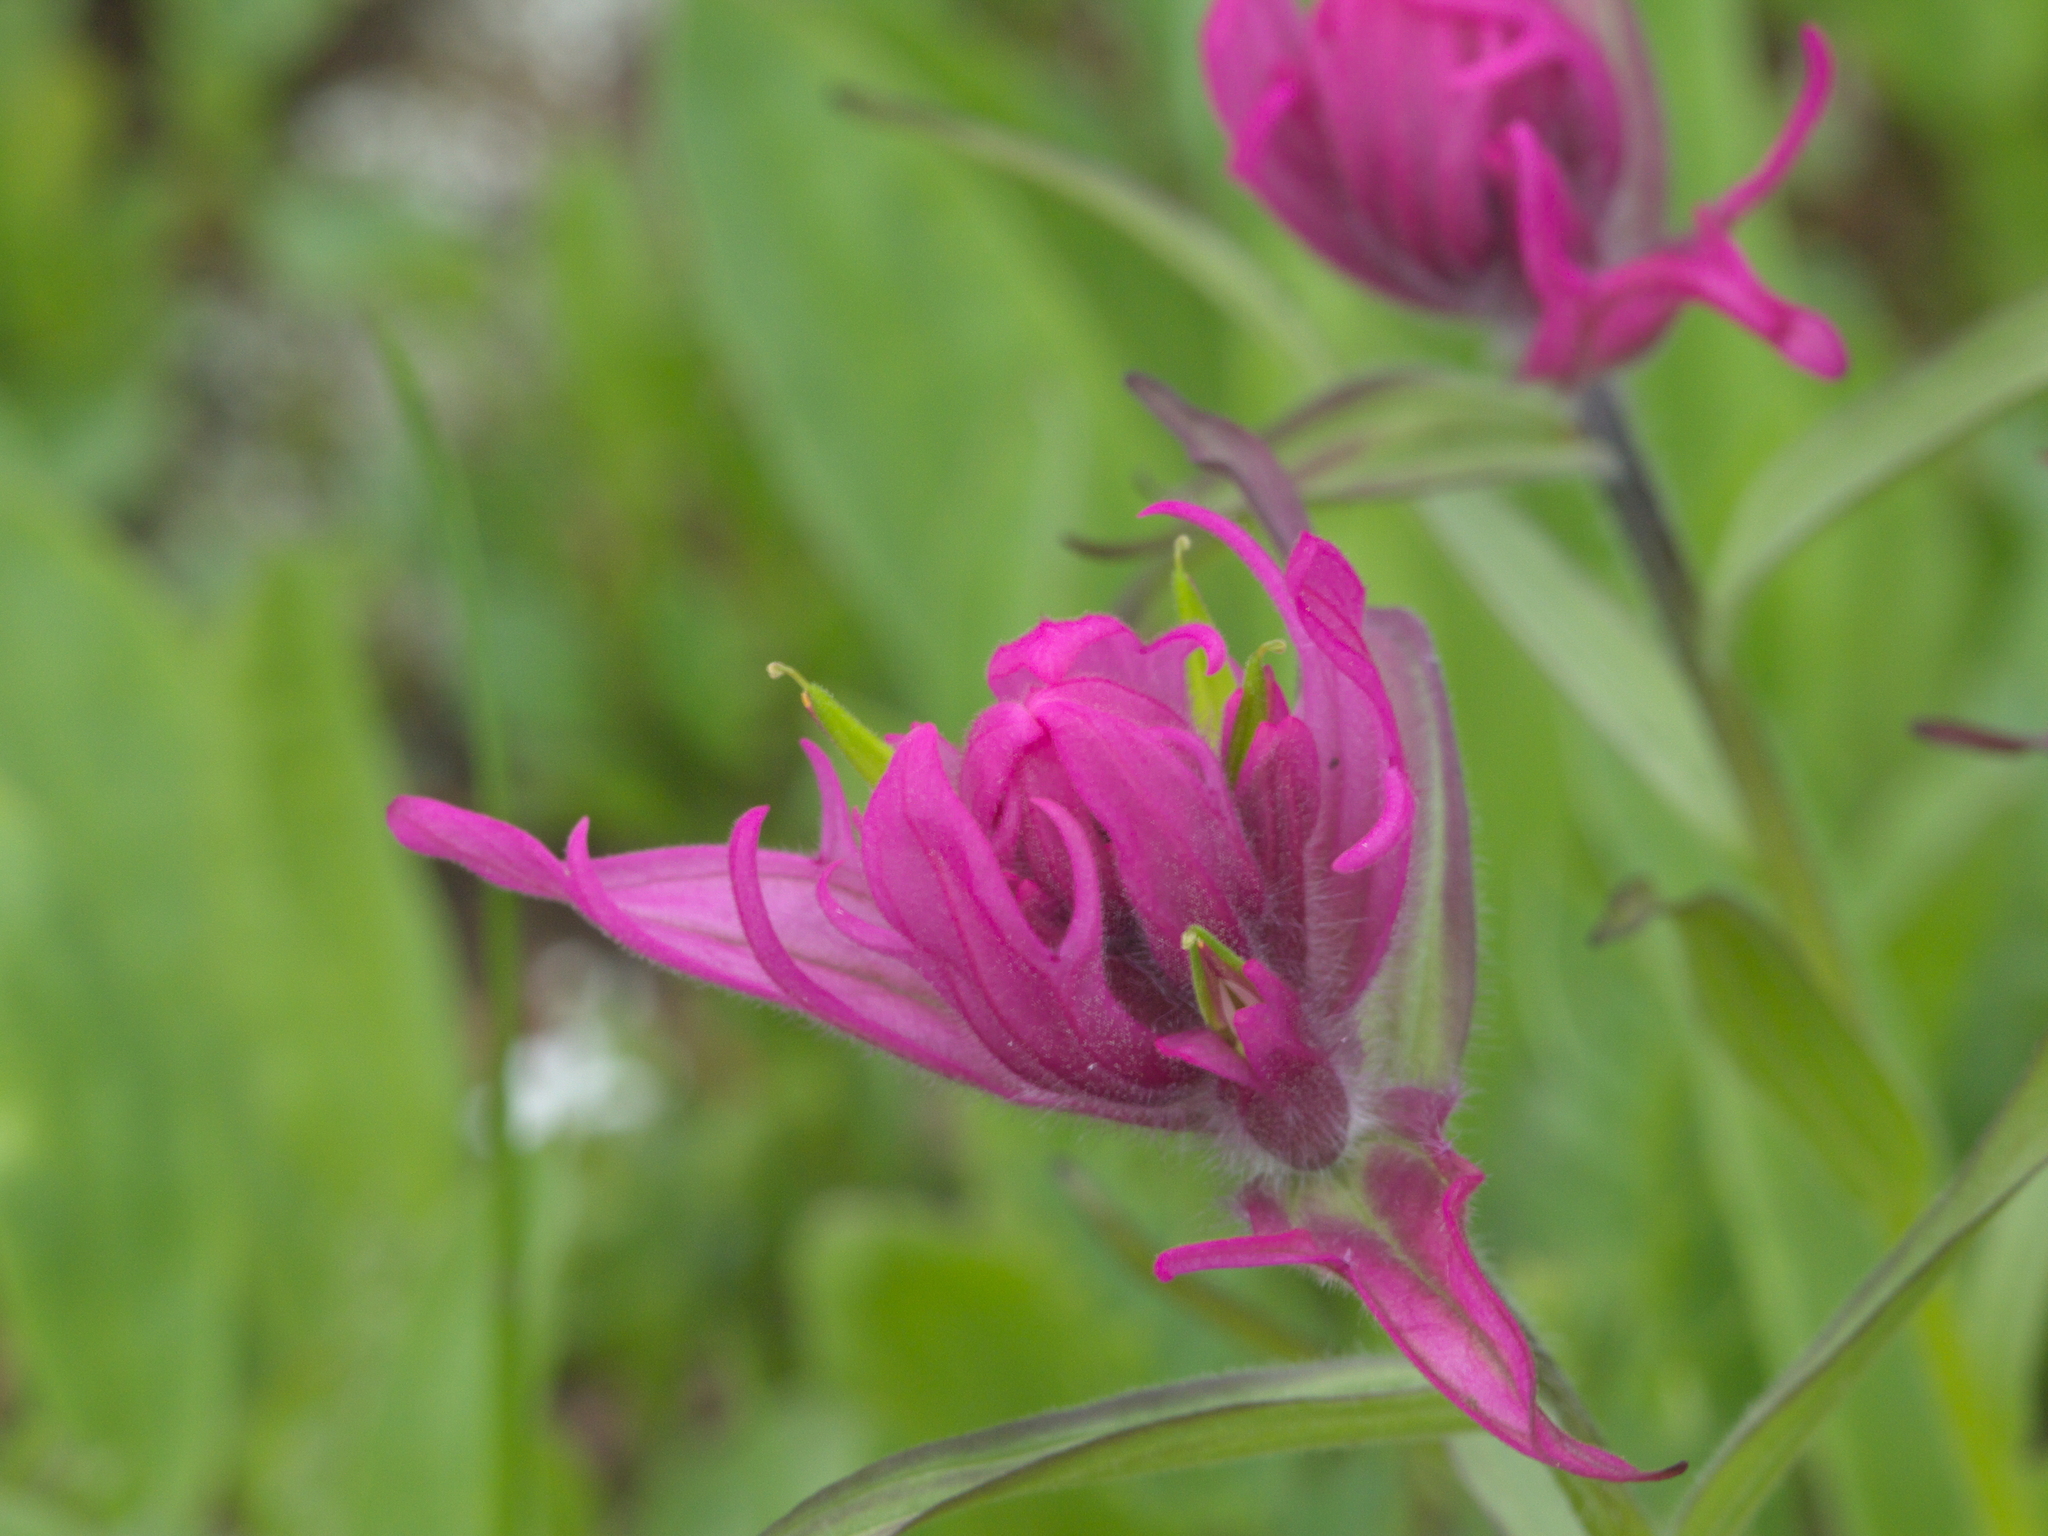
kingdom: Plantae
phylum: Tracheophyta
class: Magnoliopsida
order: Lamiales
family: Orobanchaceae
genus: Castilleja
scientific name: Castilleja rhexifolia
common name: Rocky mountain paintbrush
